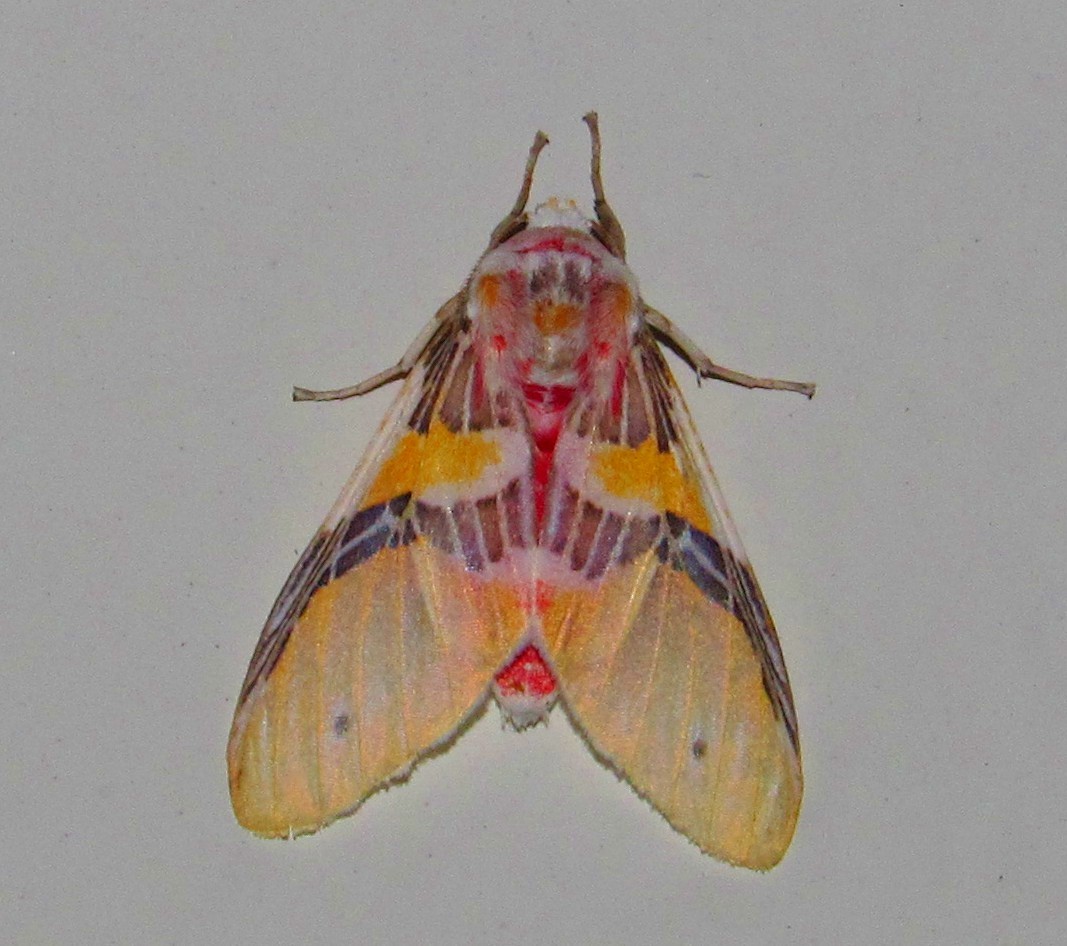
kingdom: Animalia
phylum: Arthropoda
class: Insecta
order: Lepidoptera
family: Erebidae
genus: Idalus
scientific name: Idalus agastus
